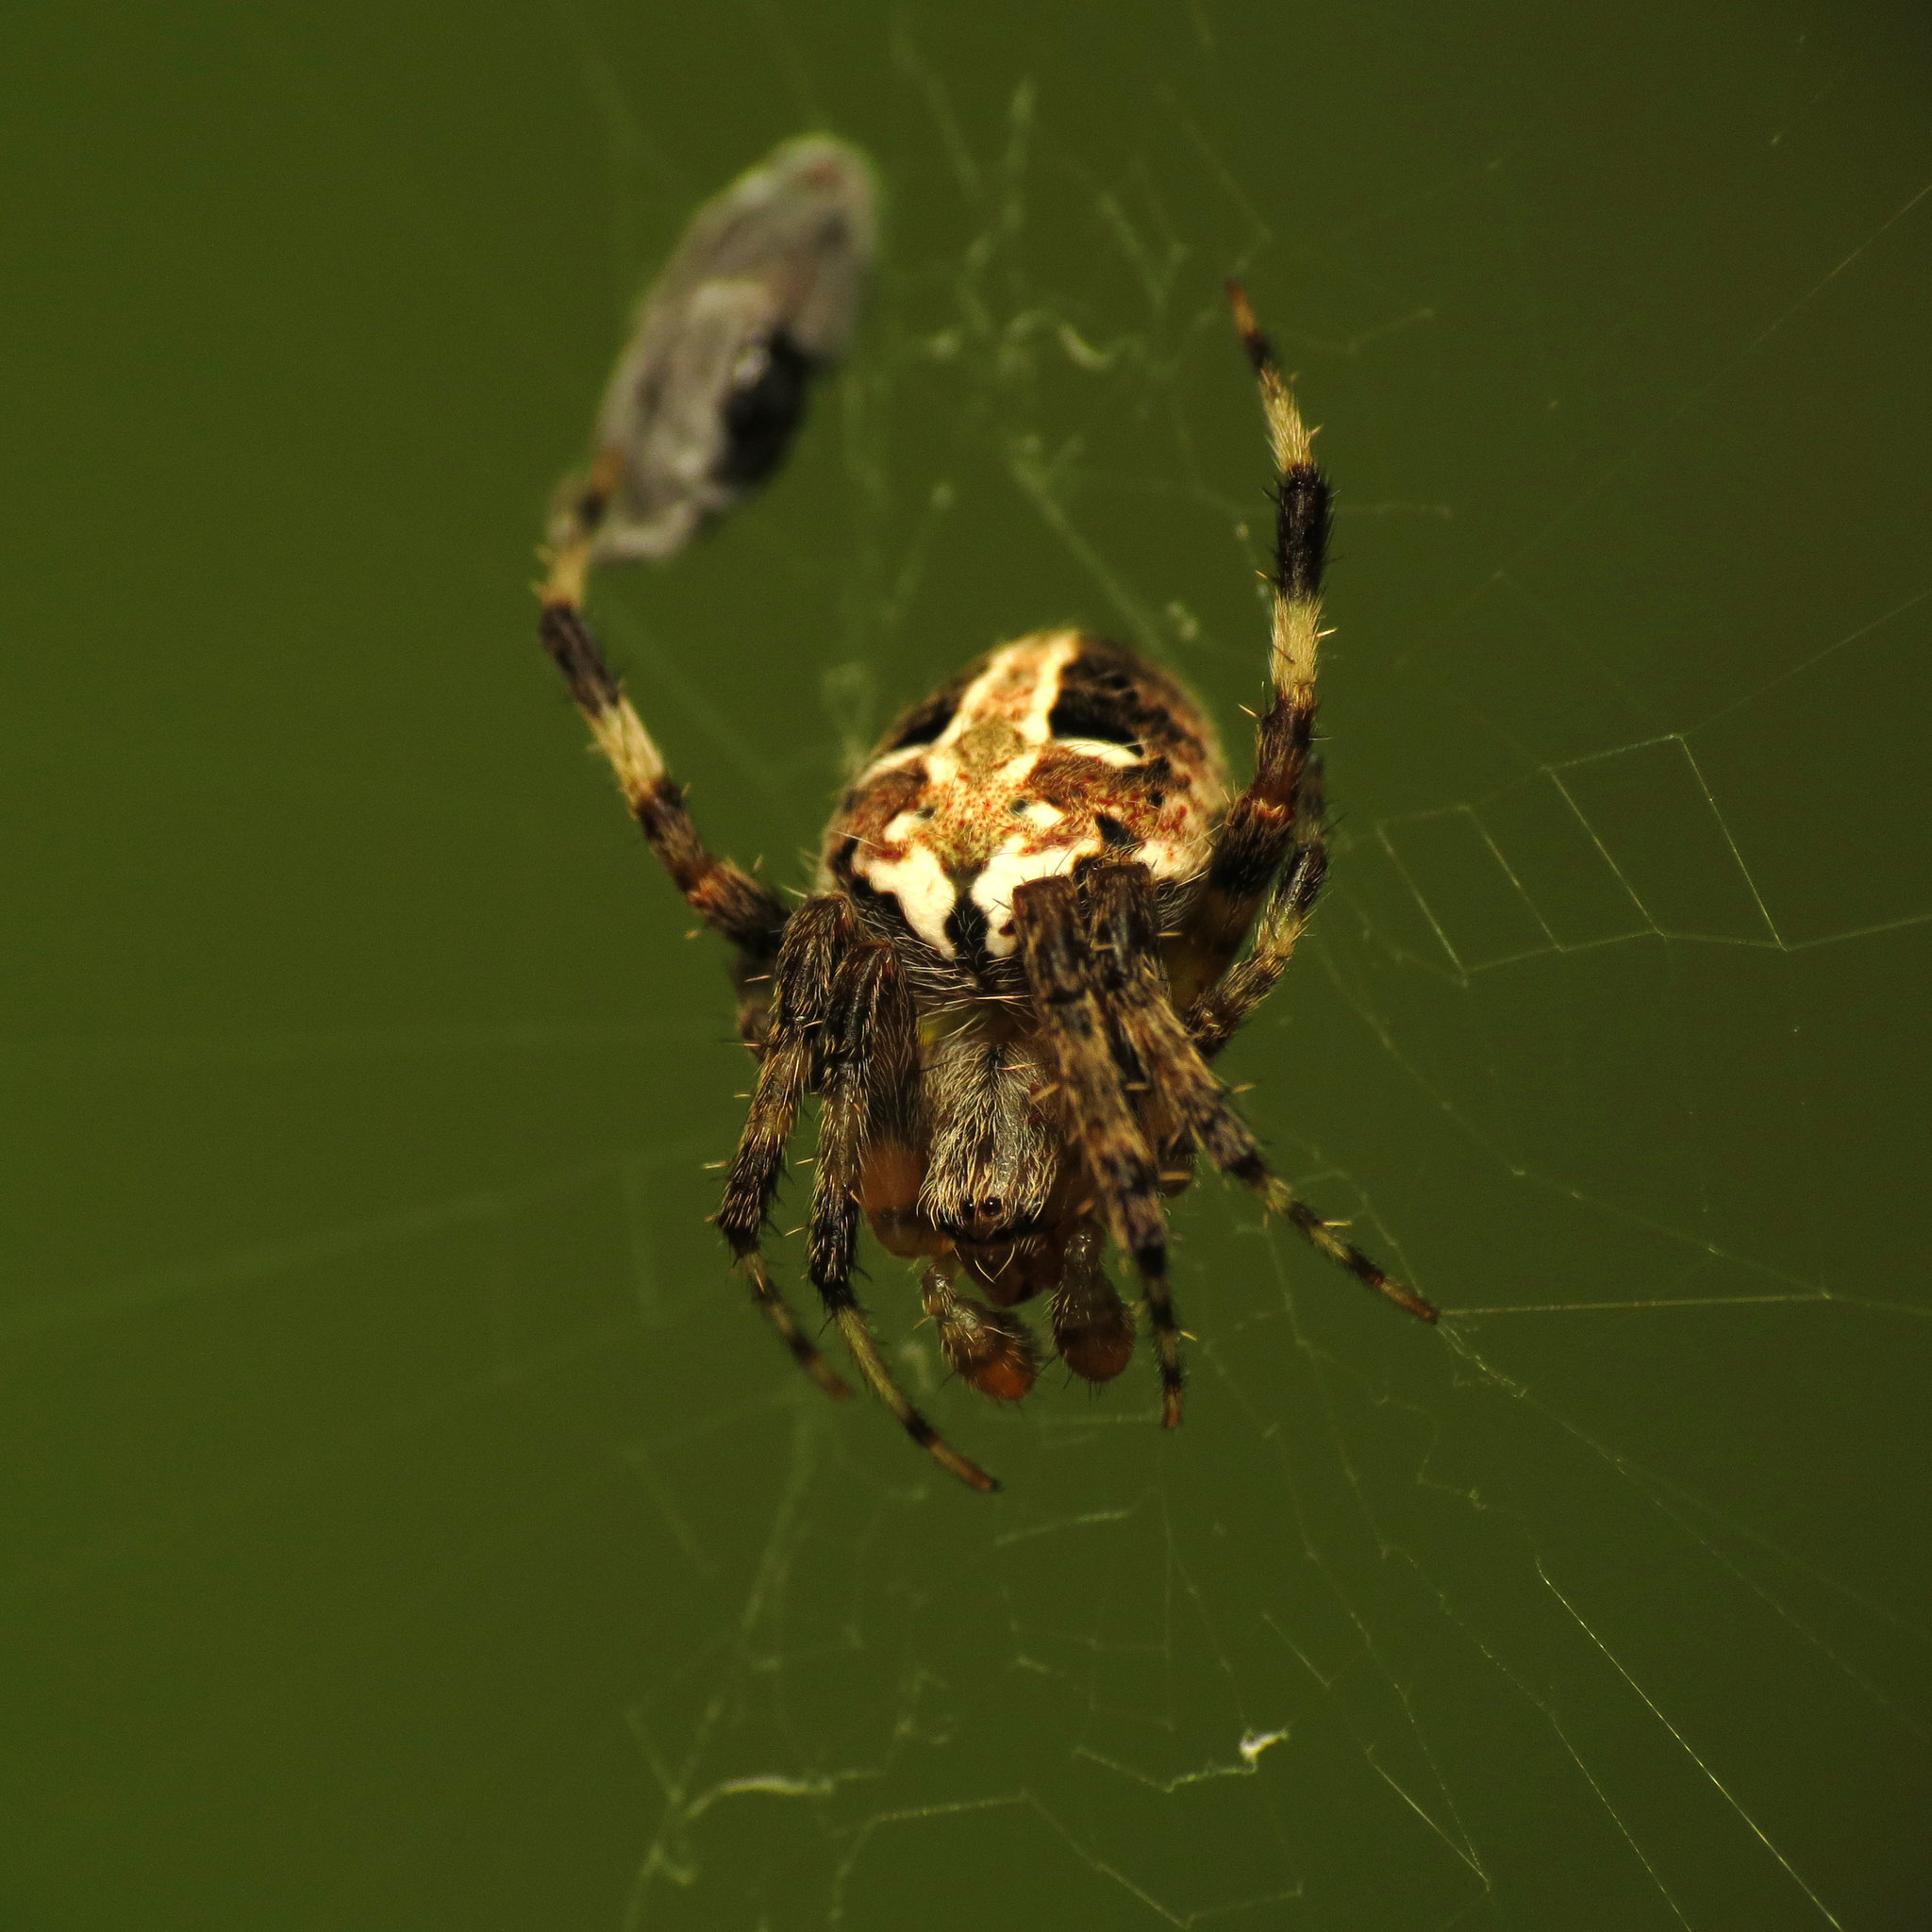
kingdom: Animalia
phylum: Arthropoda
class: Arachnida
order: Araneae
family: Araneidae
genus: Neoscona
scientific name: Neoscona domiciliorum
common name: Red-femured spotted orbweaver
